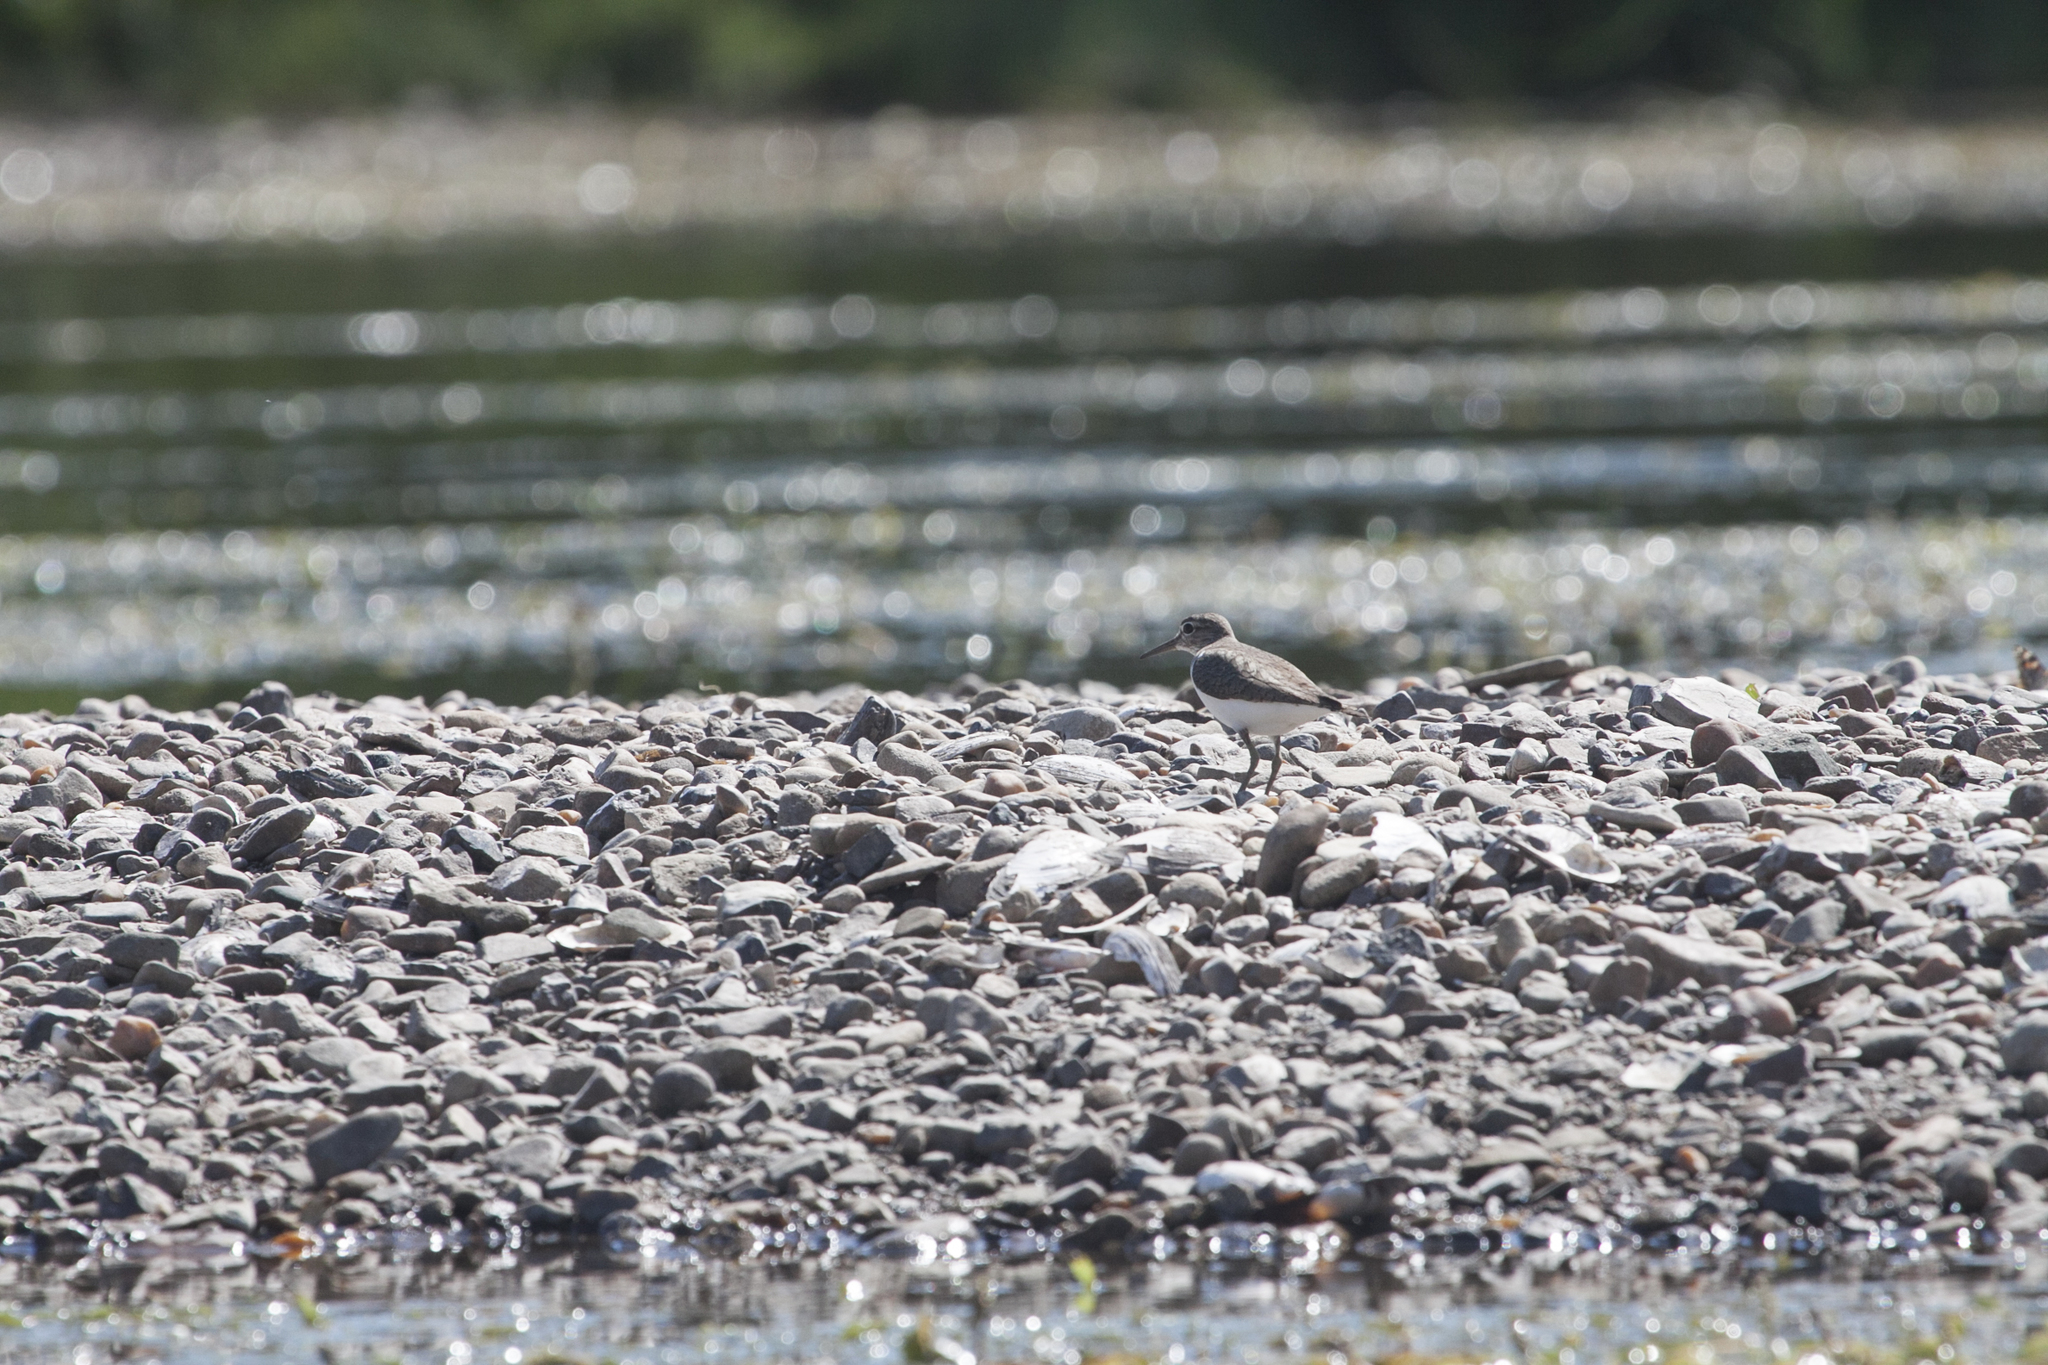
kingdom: Animalia
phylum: Chordata
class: Aves
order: Charadriiformes
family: Scolopacidae
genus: Actitis
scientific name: Actitis hypoleucos
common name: Common sandpiper
